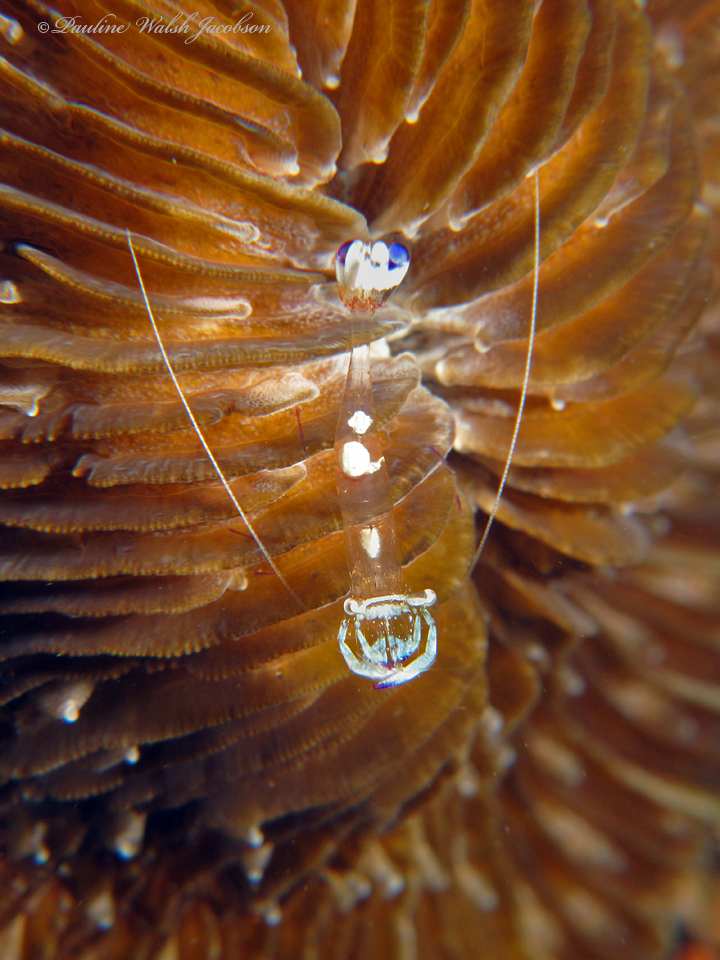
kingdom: Animalia
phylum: Arthropoda
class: Malacostraca
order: Decapoda
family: Palaemonidae
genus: Ancylomenes
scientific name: Ancylomenes magnificus
